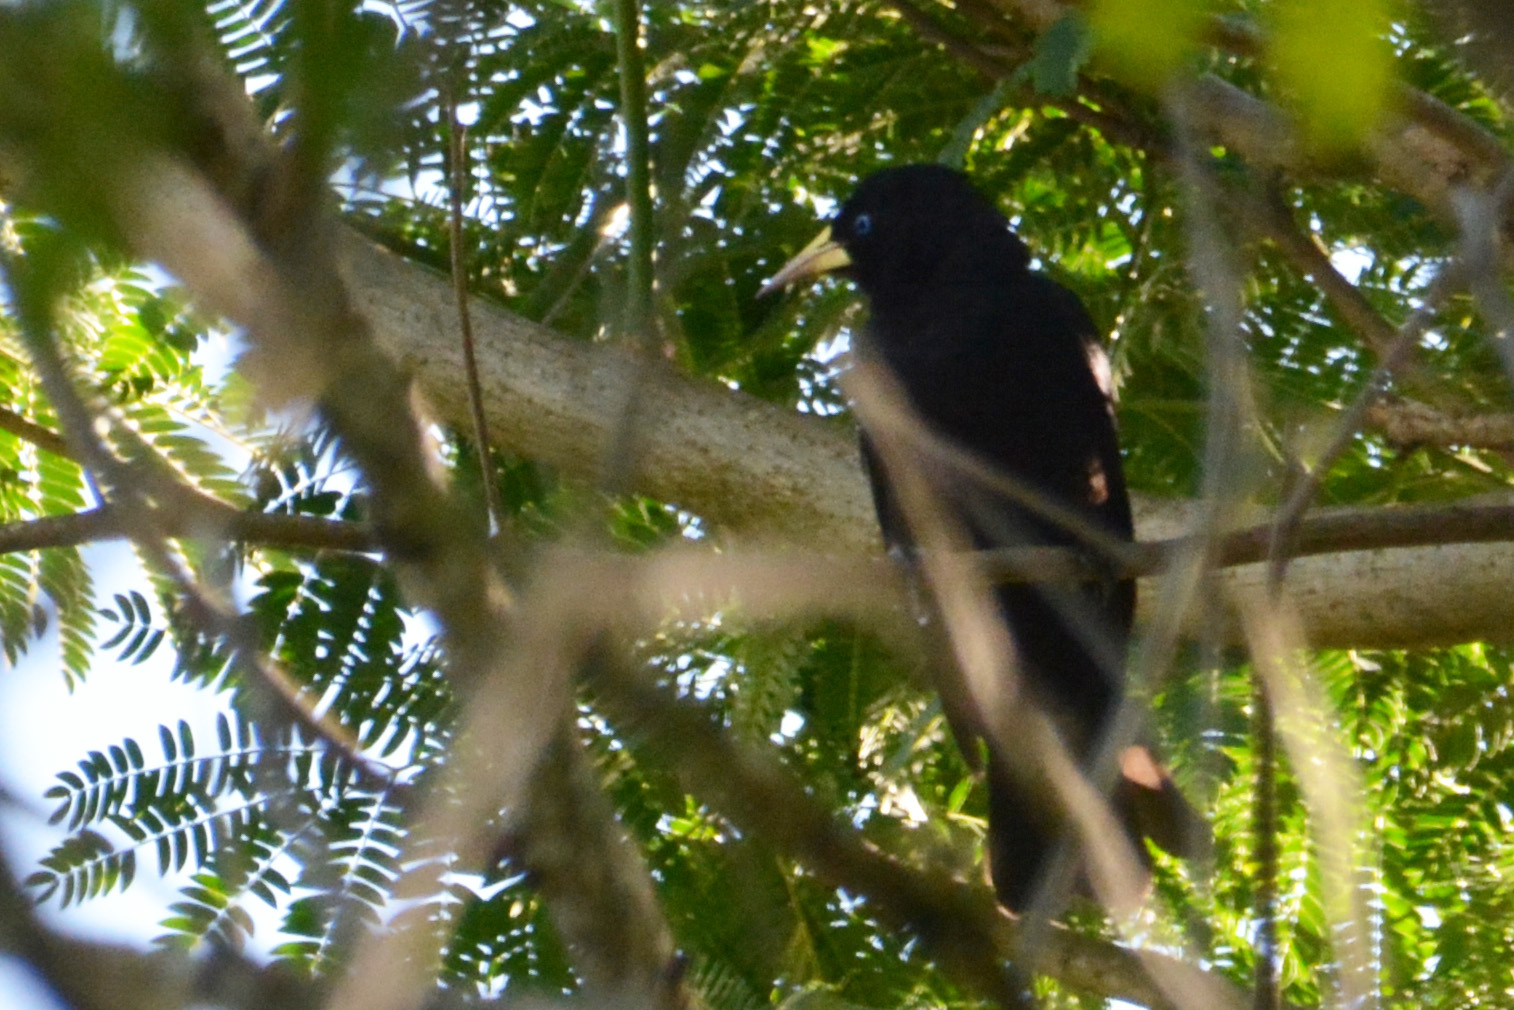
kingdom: Animalia
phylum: Chordata
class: Aves
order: Passeriformes
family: Icteridae
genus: Cacicus
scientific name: Cacicus haemorrhous
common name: Red-rumped cacique
